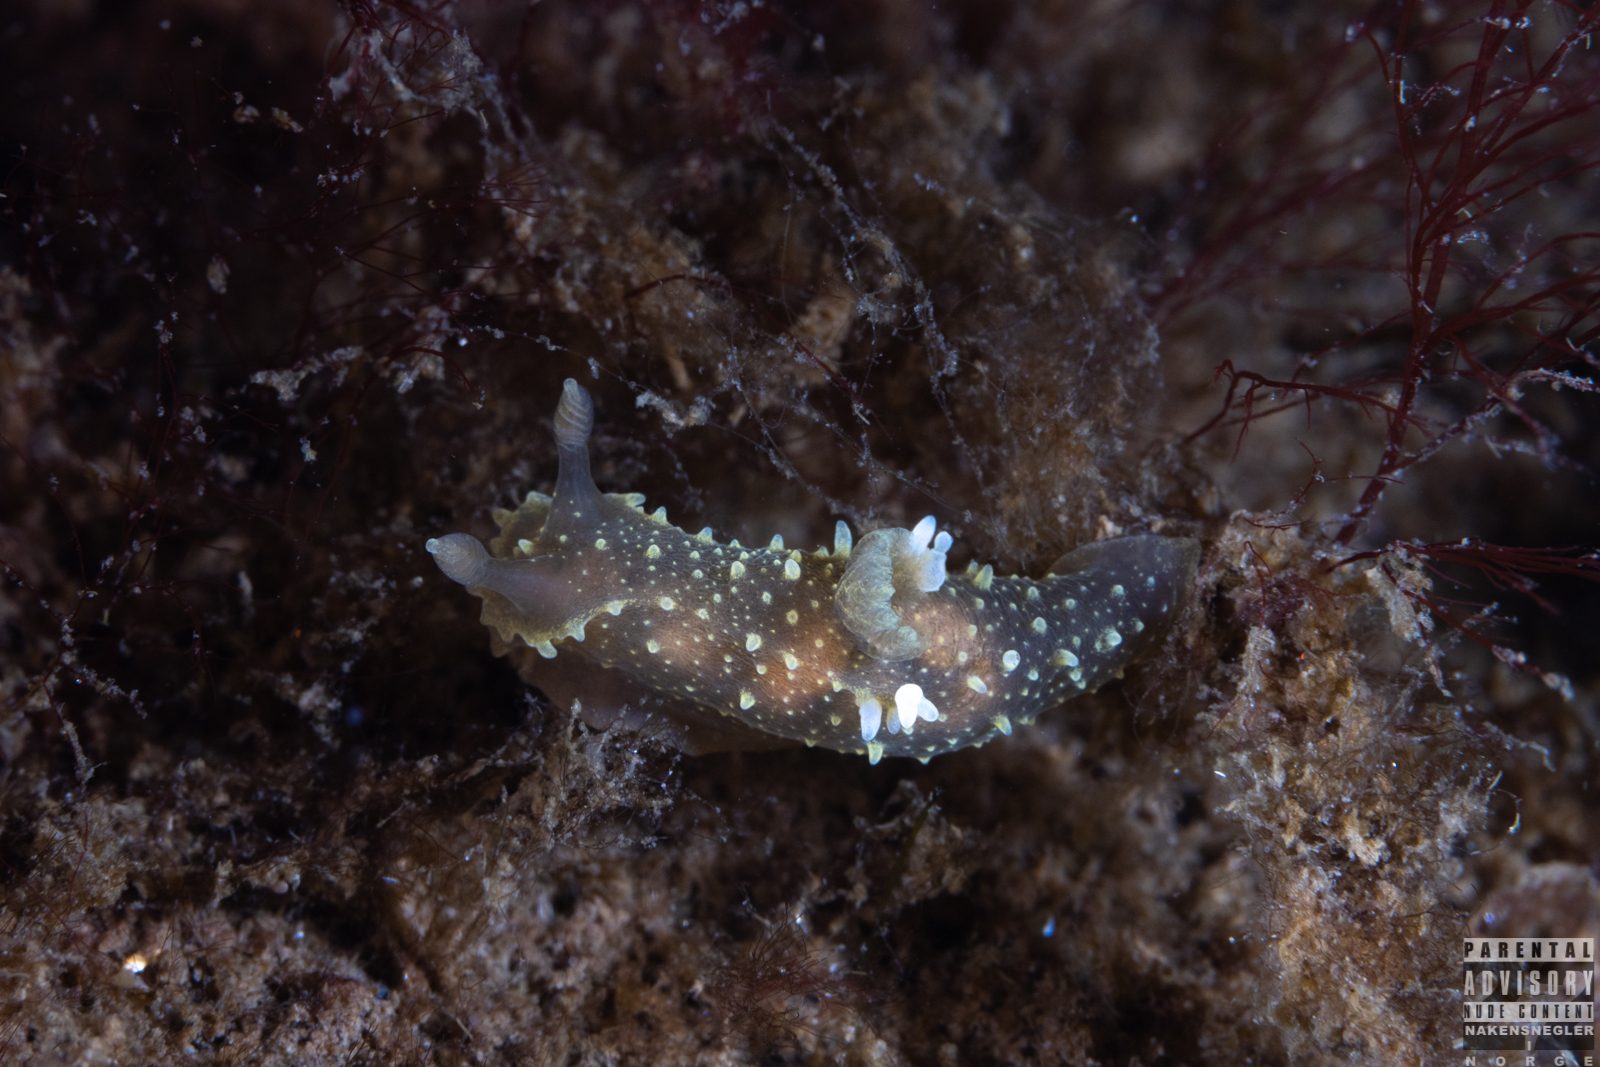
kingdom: Animalia
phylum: Mollusca
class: Gastropoda
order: Nudibranchia
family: Polyceridae
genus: Palio
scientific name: Palio dubia
